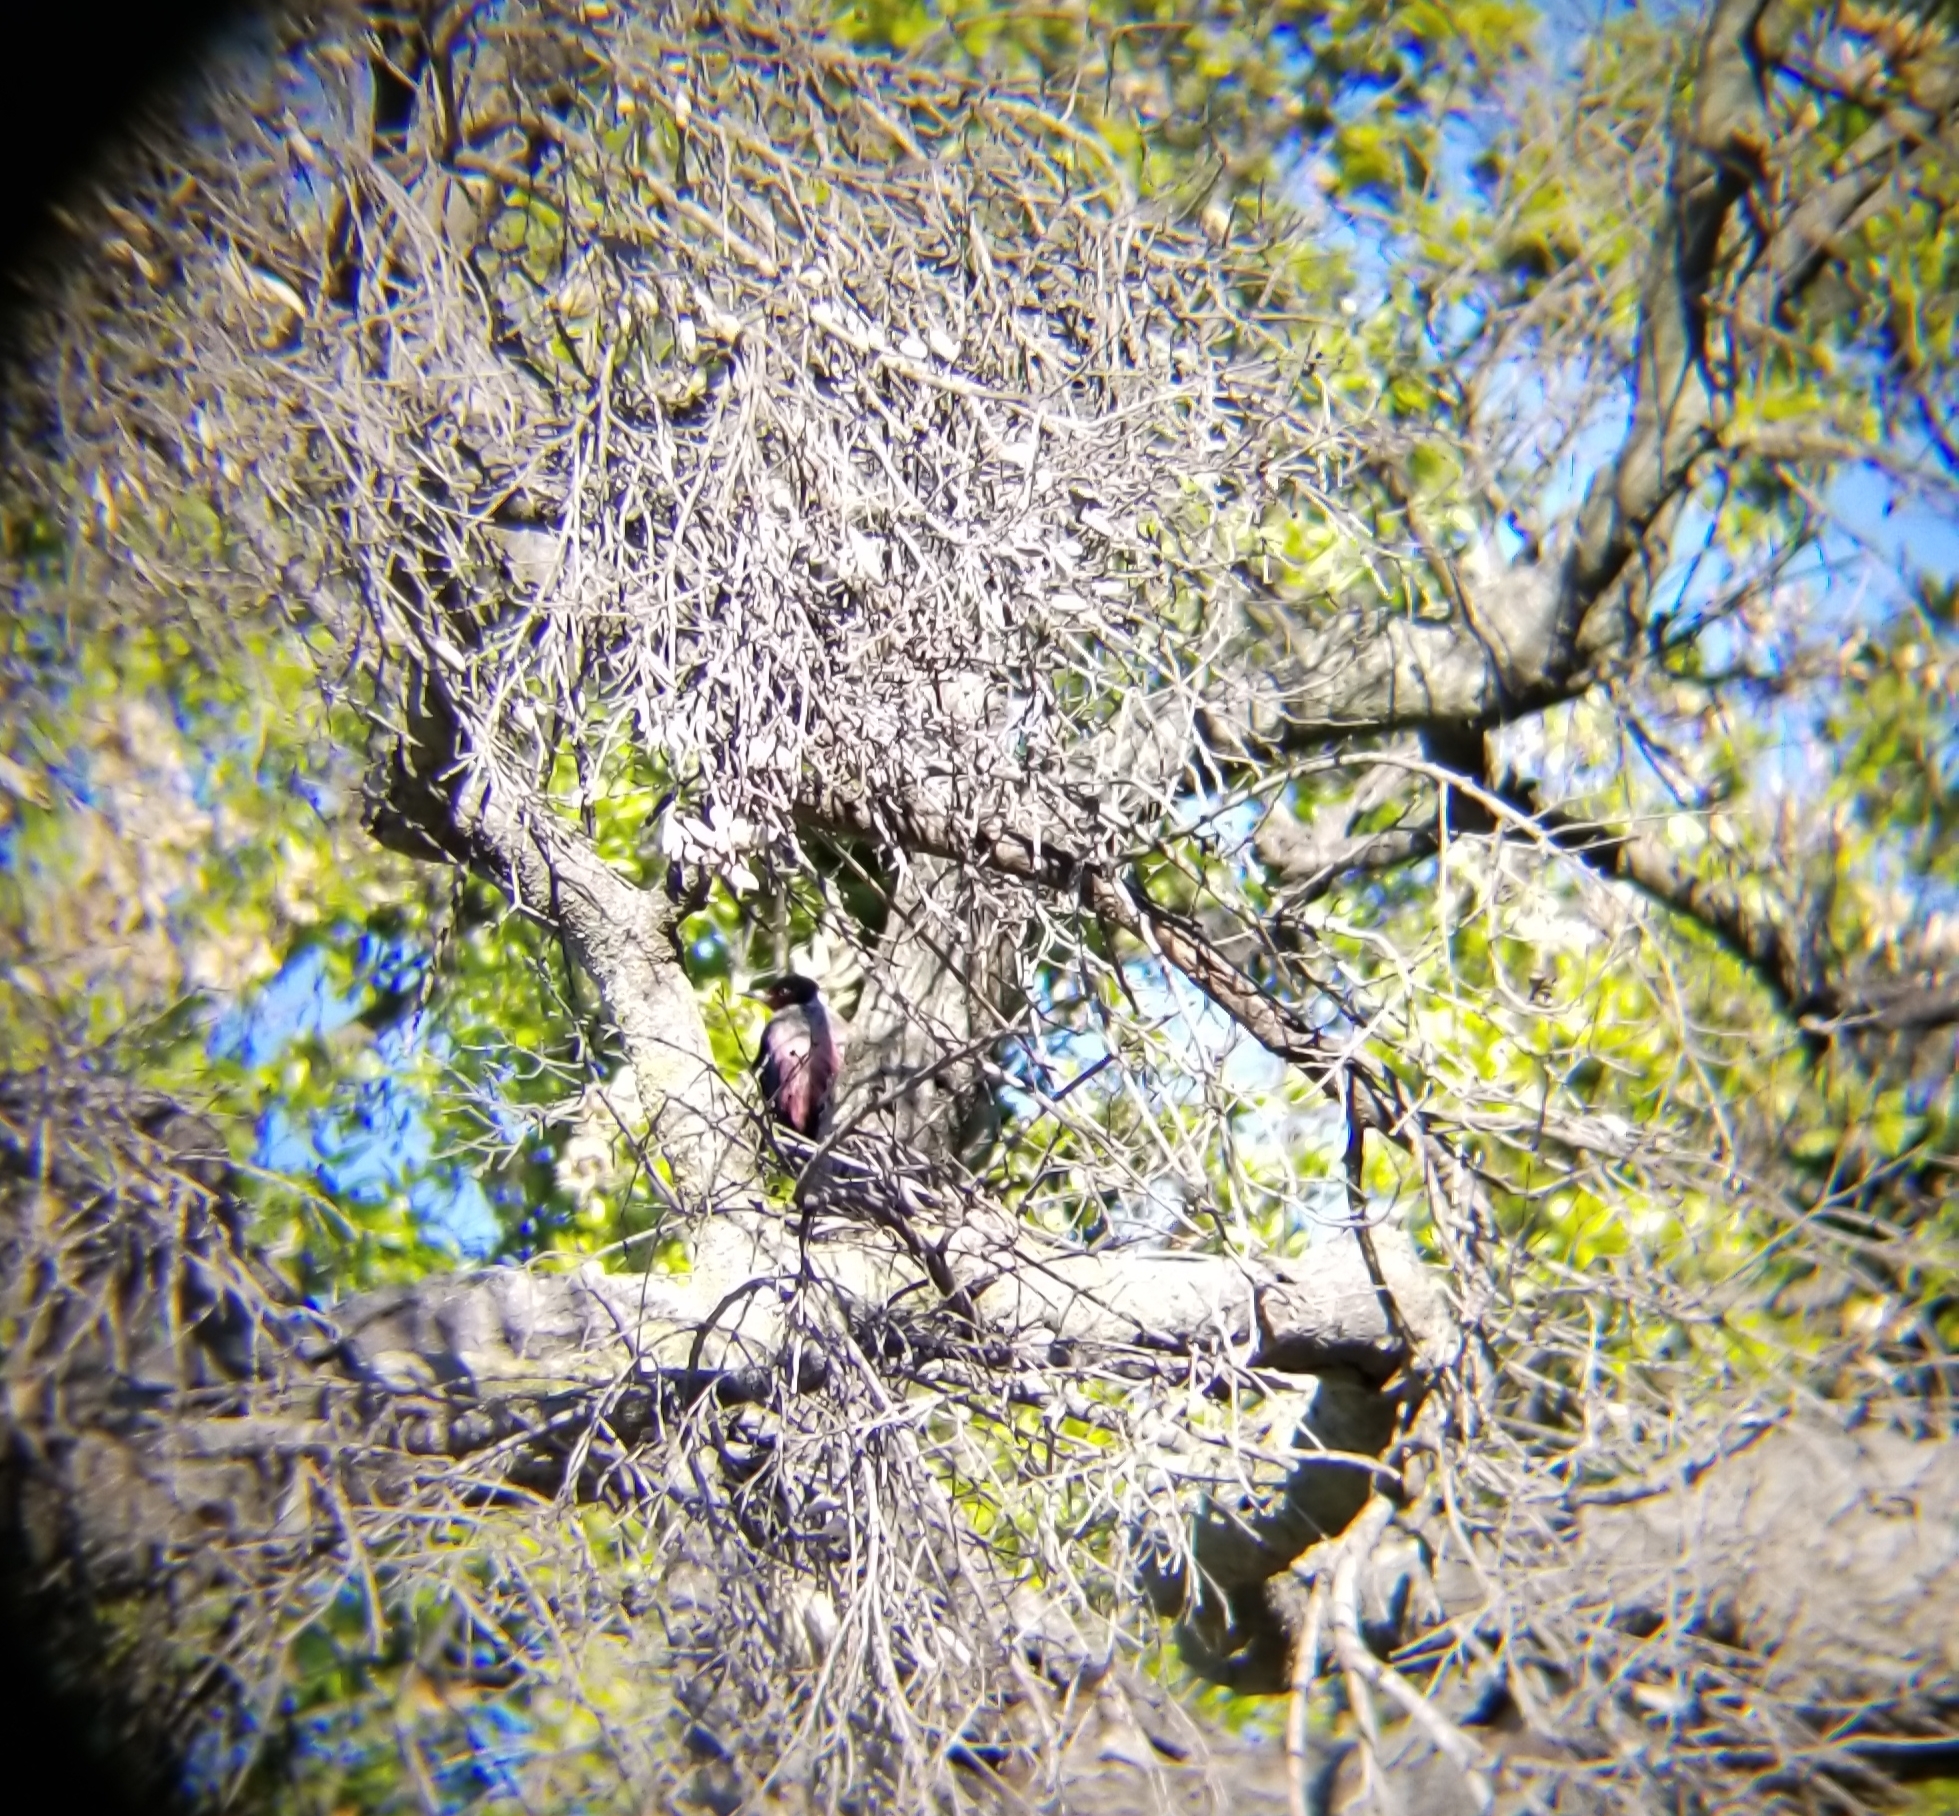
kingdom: Animalia
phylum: Chordata
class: Aves
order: Piciformes
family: Picidae
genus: Melanerpes
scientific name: Melanerpes lewis
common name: Lewis's woodpecker
